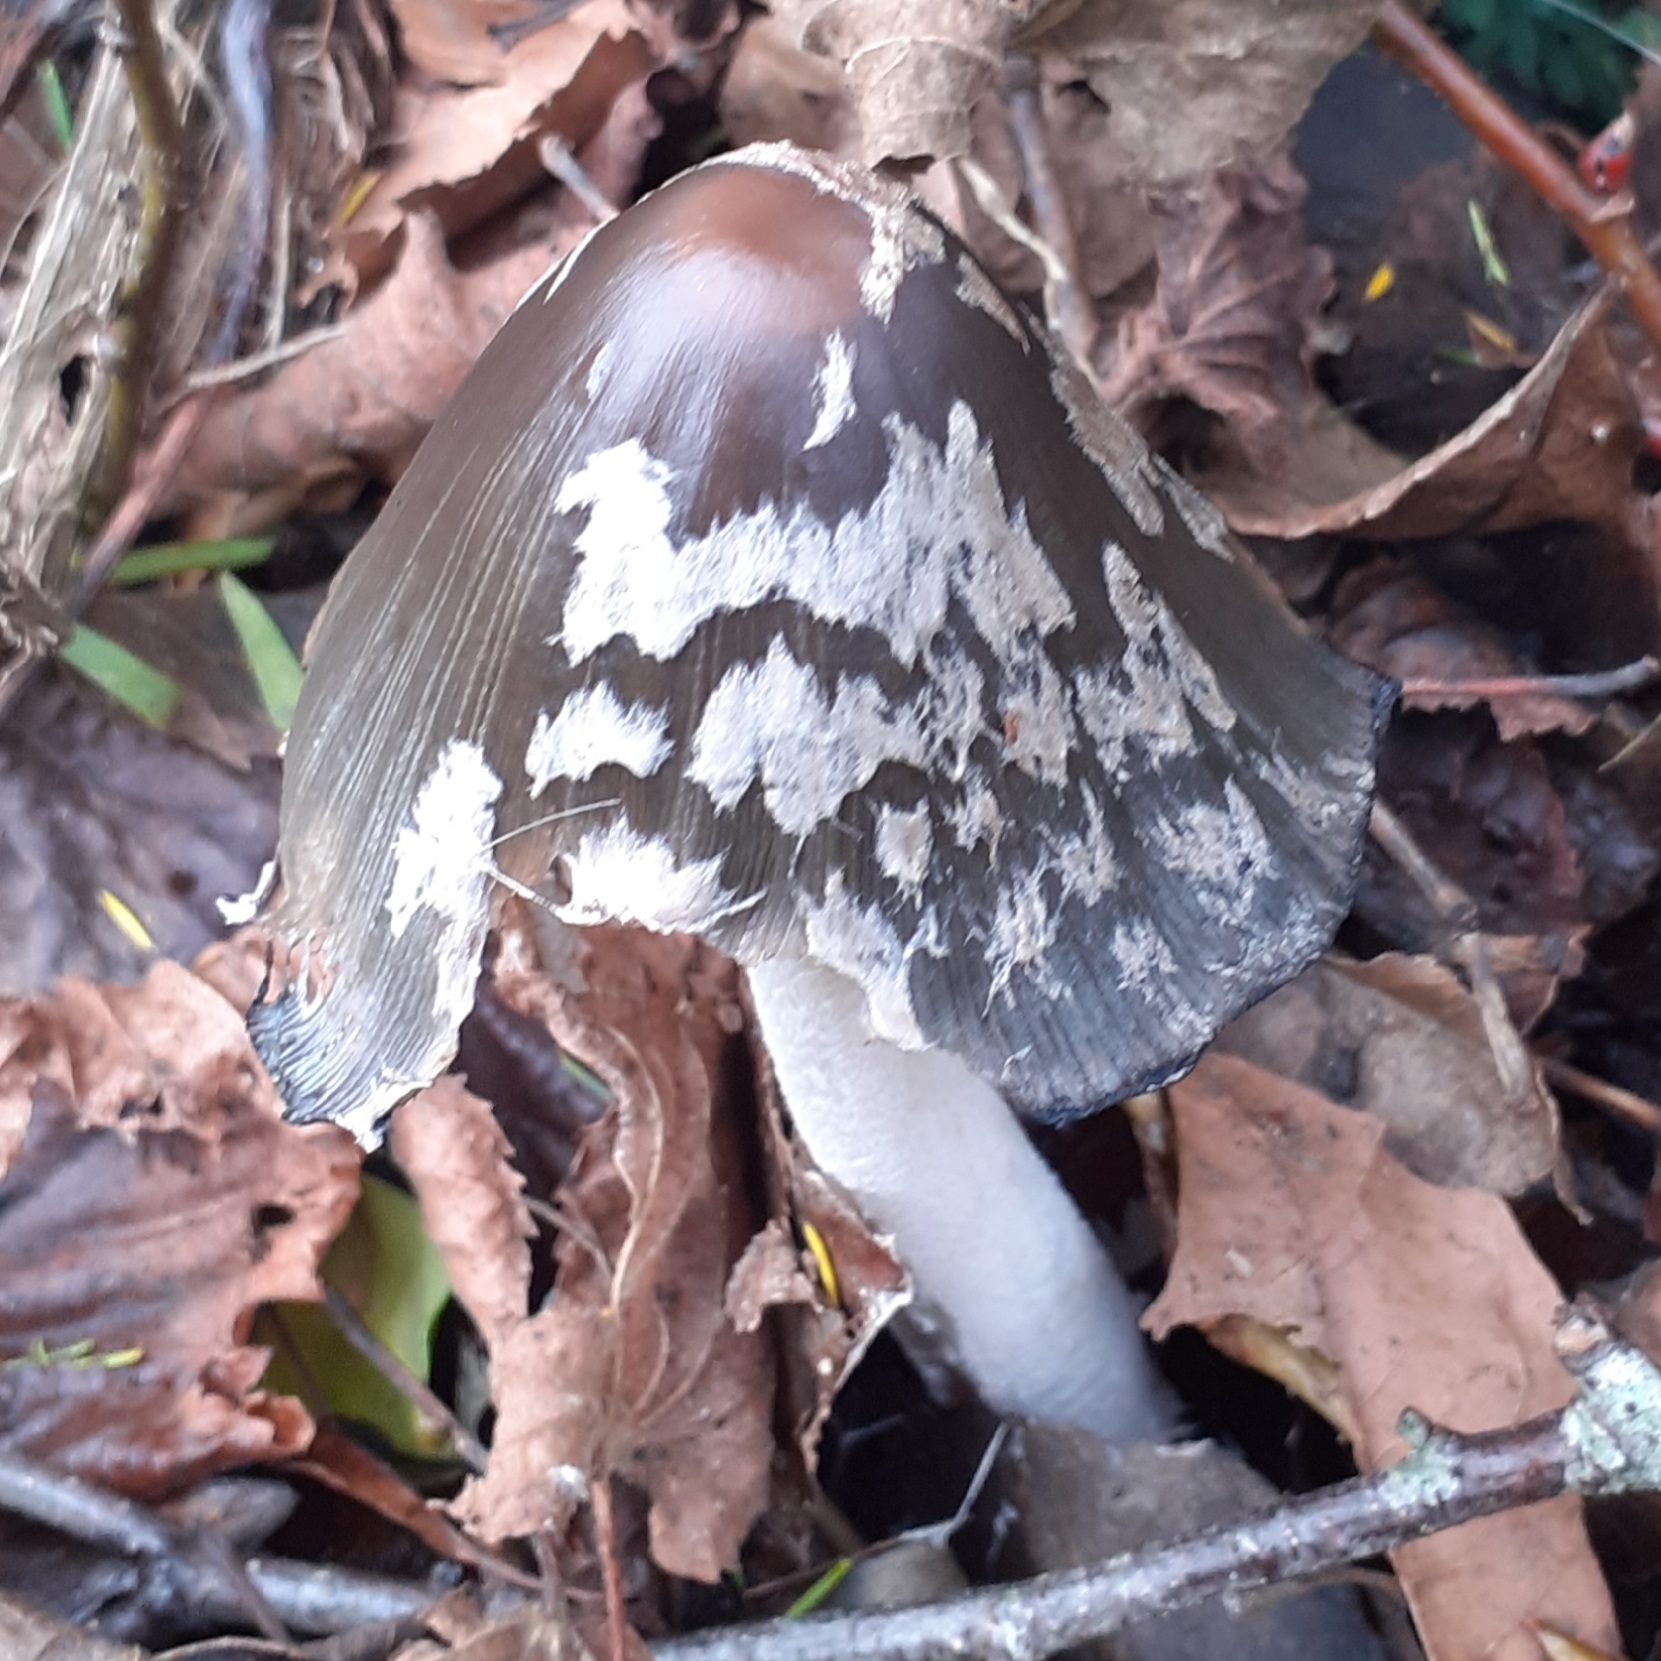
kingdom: Fungi
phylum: Basidiomycota
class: Agaricomycetes
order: Agaricales
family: Psathyrellaceae
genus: Coprinopsis
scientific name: Coprinopsis picacea
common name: Magpie inkcap
